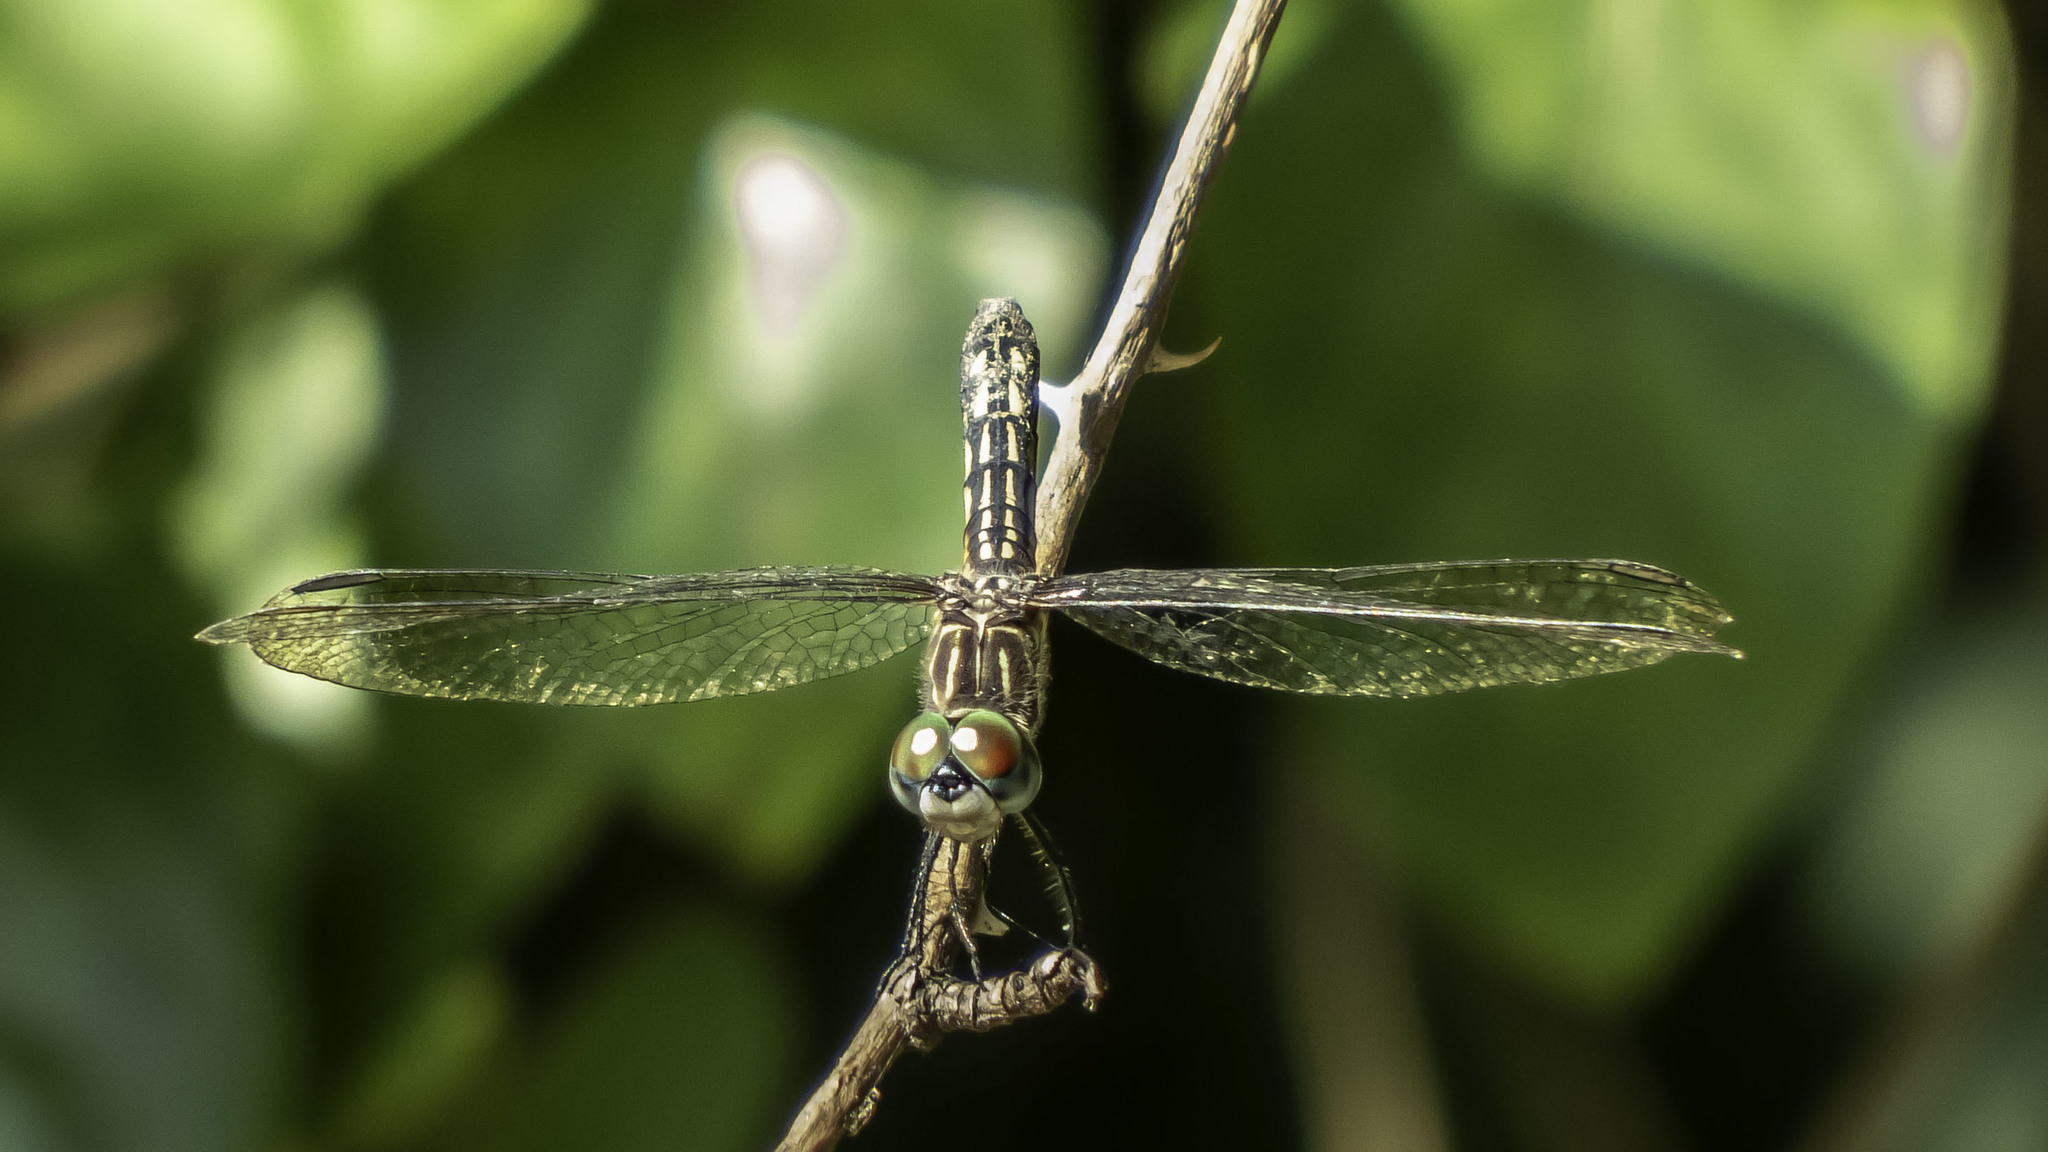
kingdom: Animalia
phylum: Arthropoda
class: Insecta
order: Odonata
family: Libellulidae
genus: Pachydiplax
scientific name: Pachydiplax longipennis
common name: Blue dasher
